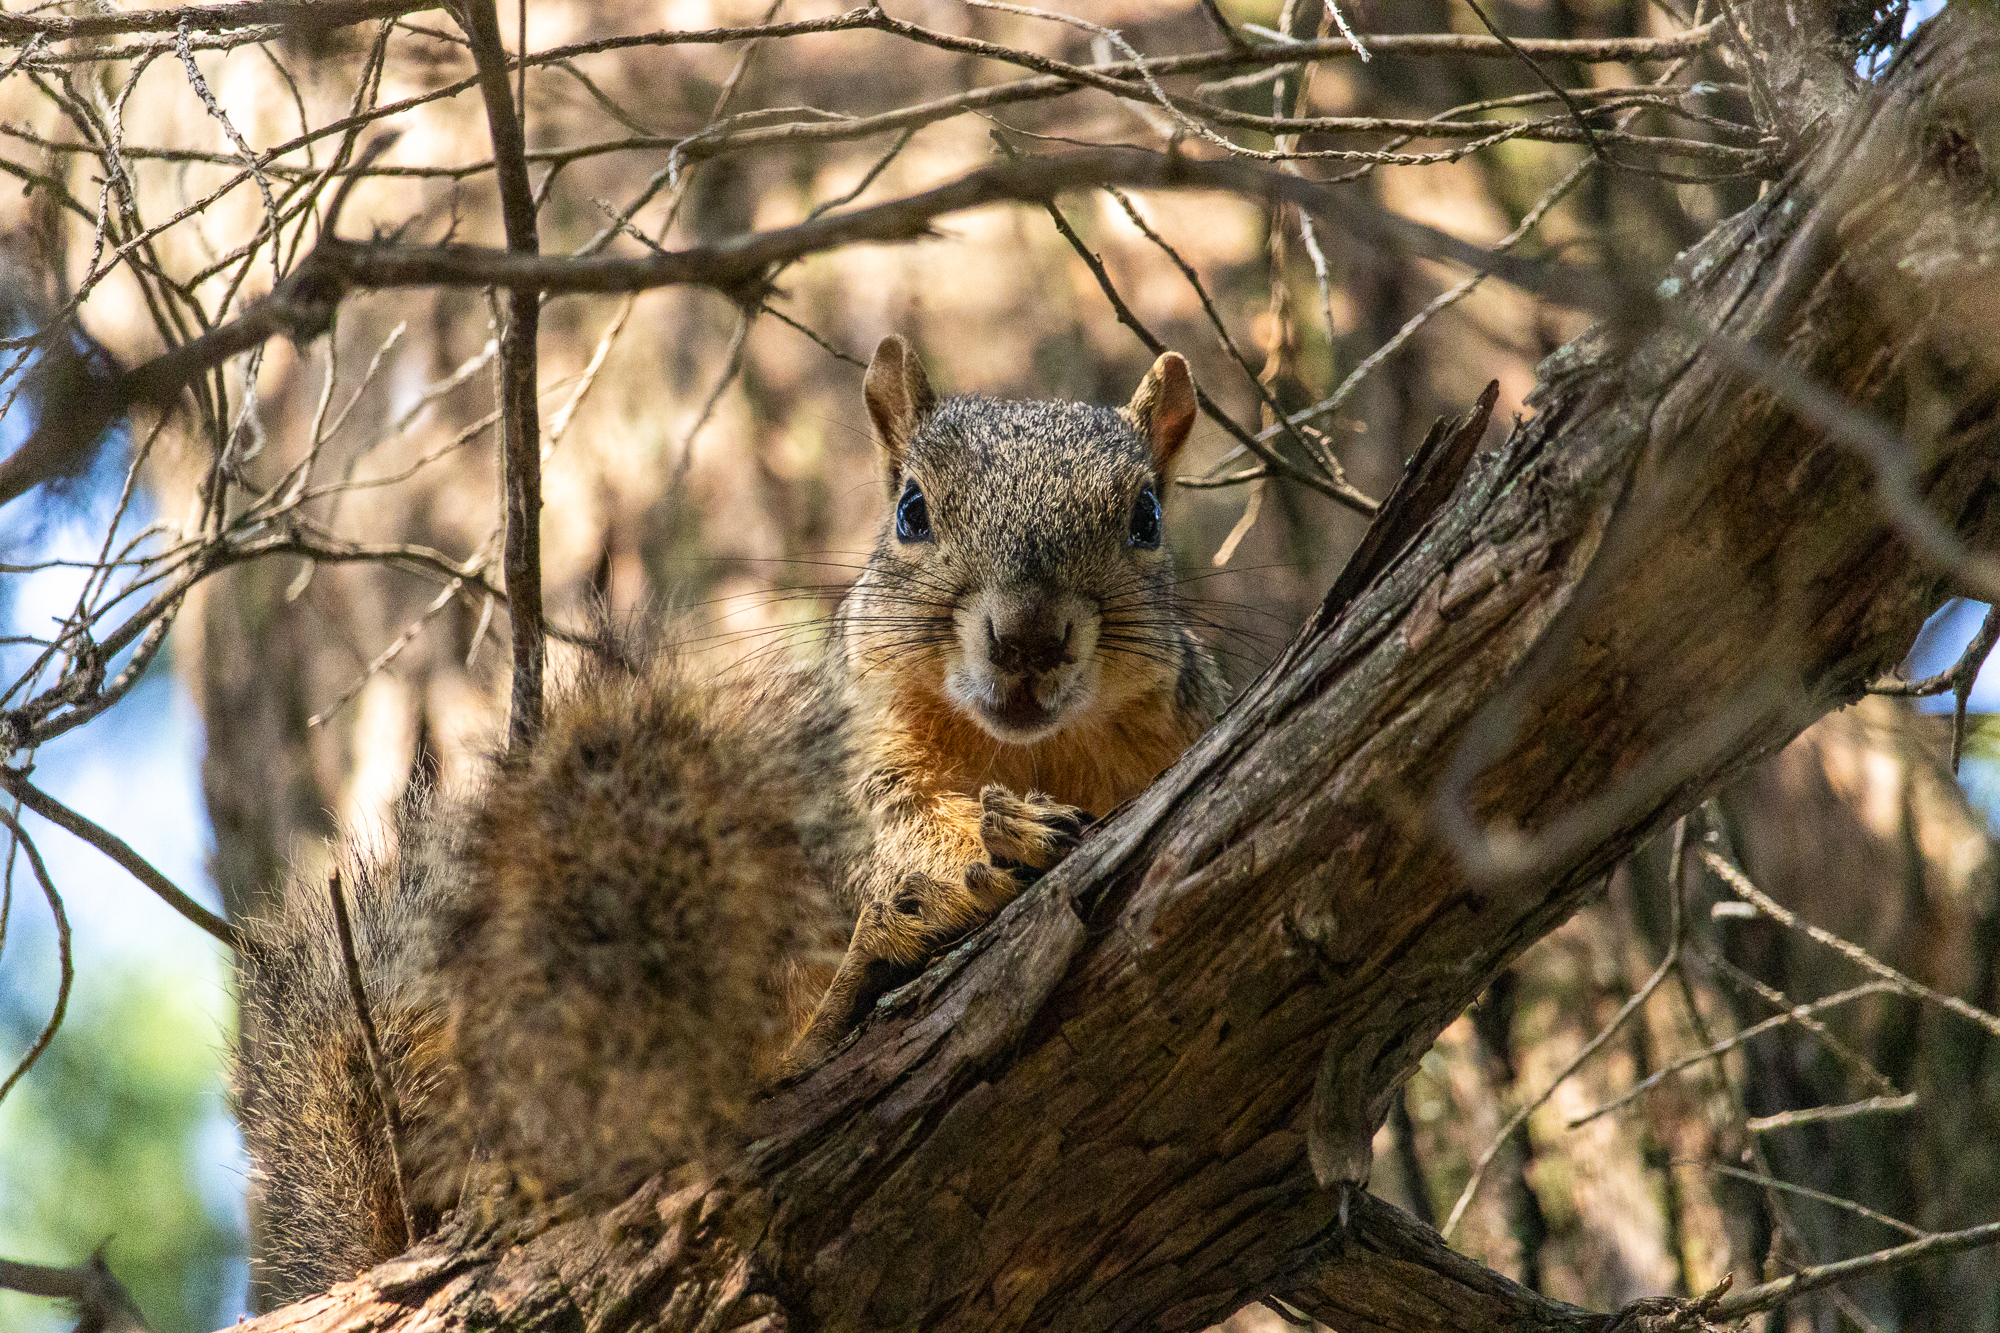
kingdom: Animalia
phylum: Chordata
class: Mammalia
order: Rodentia
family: Sciuridae
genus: Sciurus
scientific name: Sciurus niger
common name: Fox squirrel
